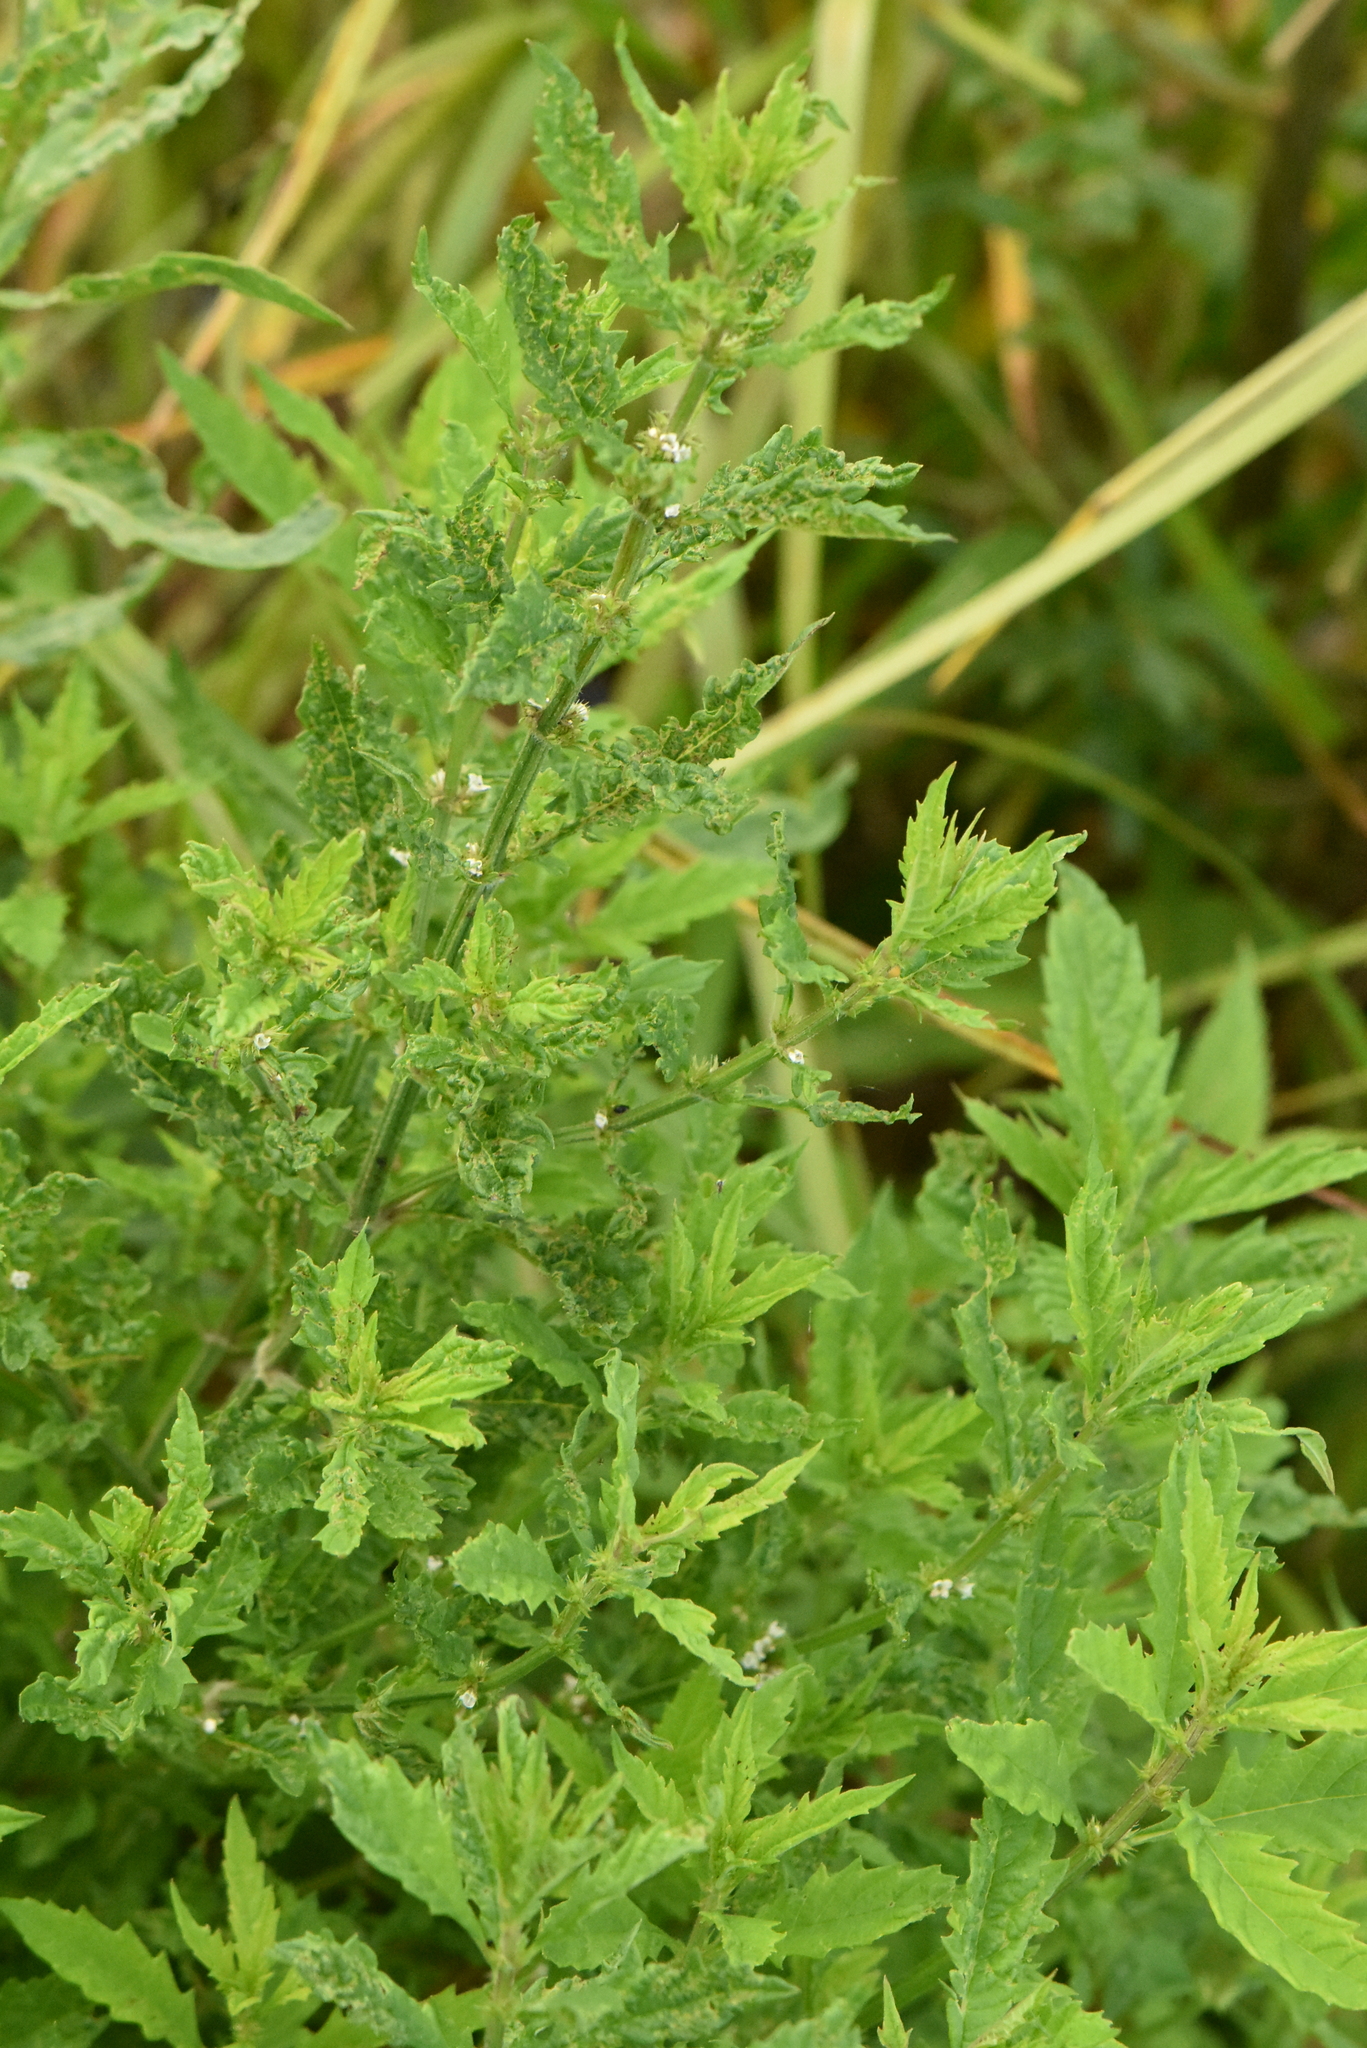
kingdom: Plantae
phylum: Tracheophyta
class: Magnoliopsida
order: Lamiales
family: Lamiaceae
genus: Lycopus
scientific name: Lycopus europaeus
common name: European bugleweed
